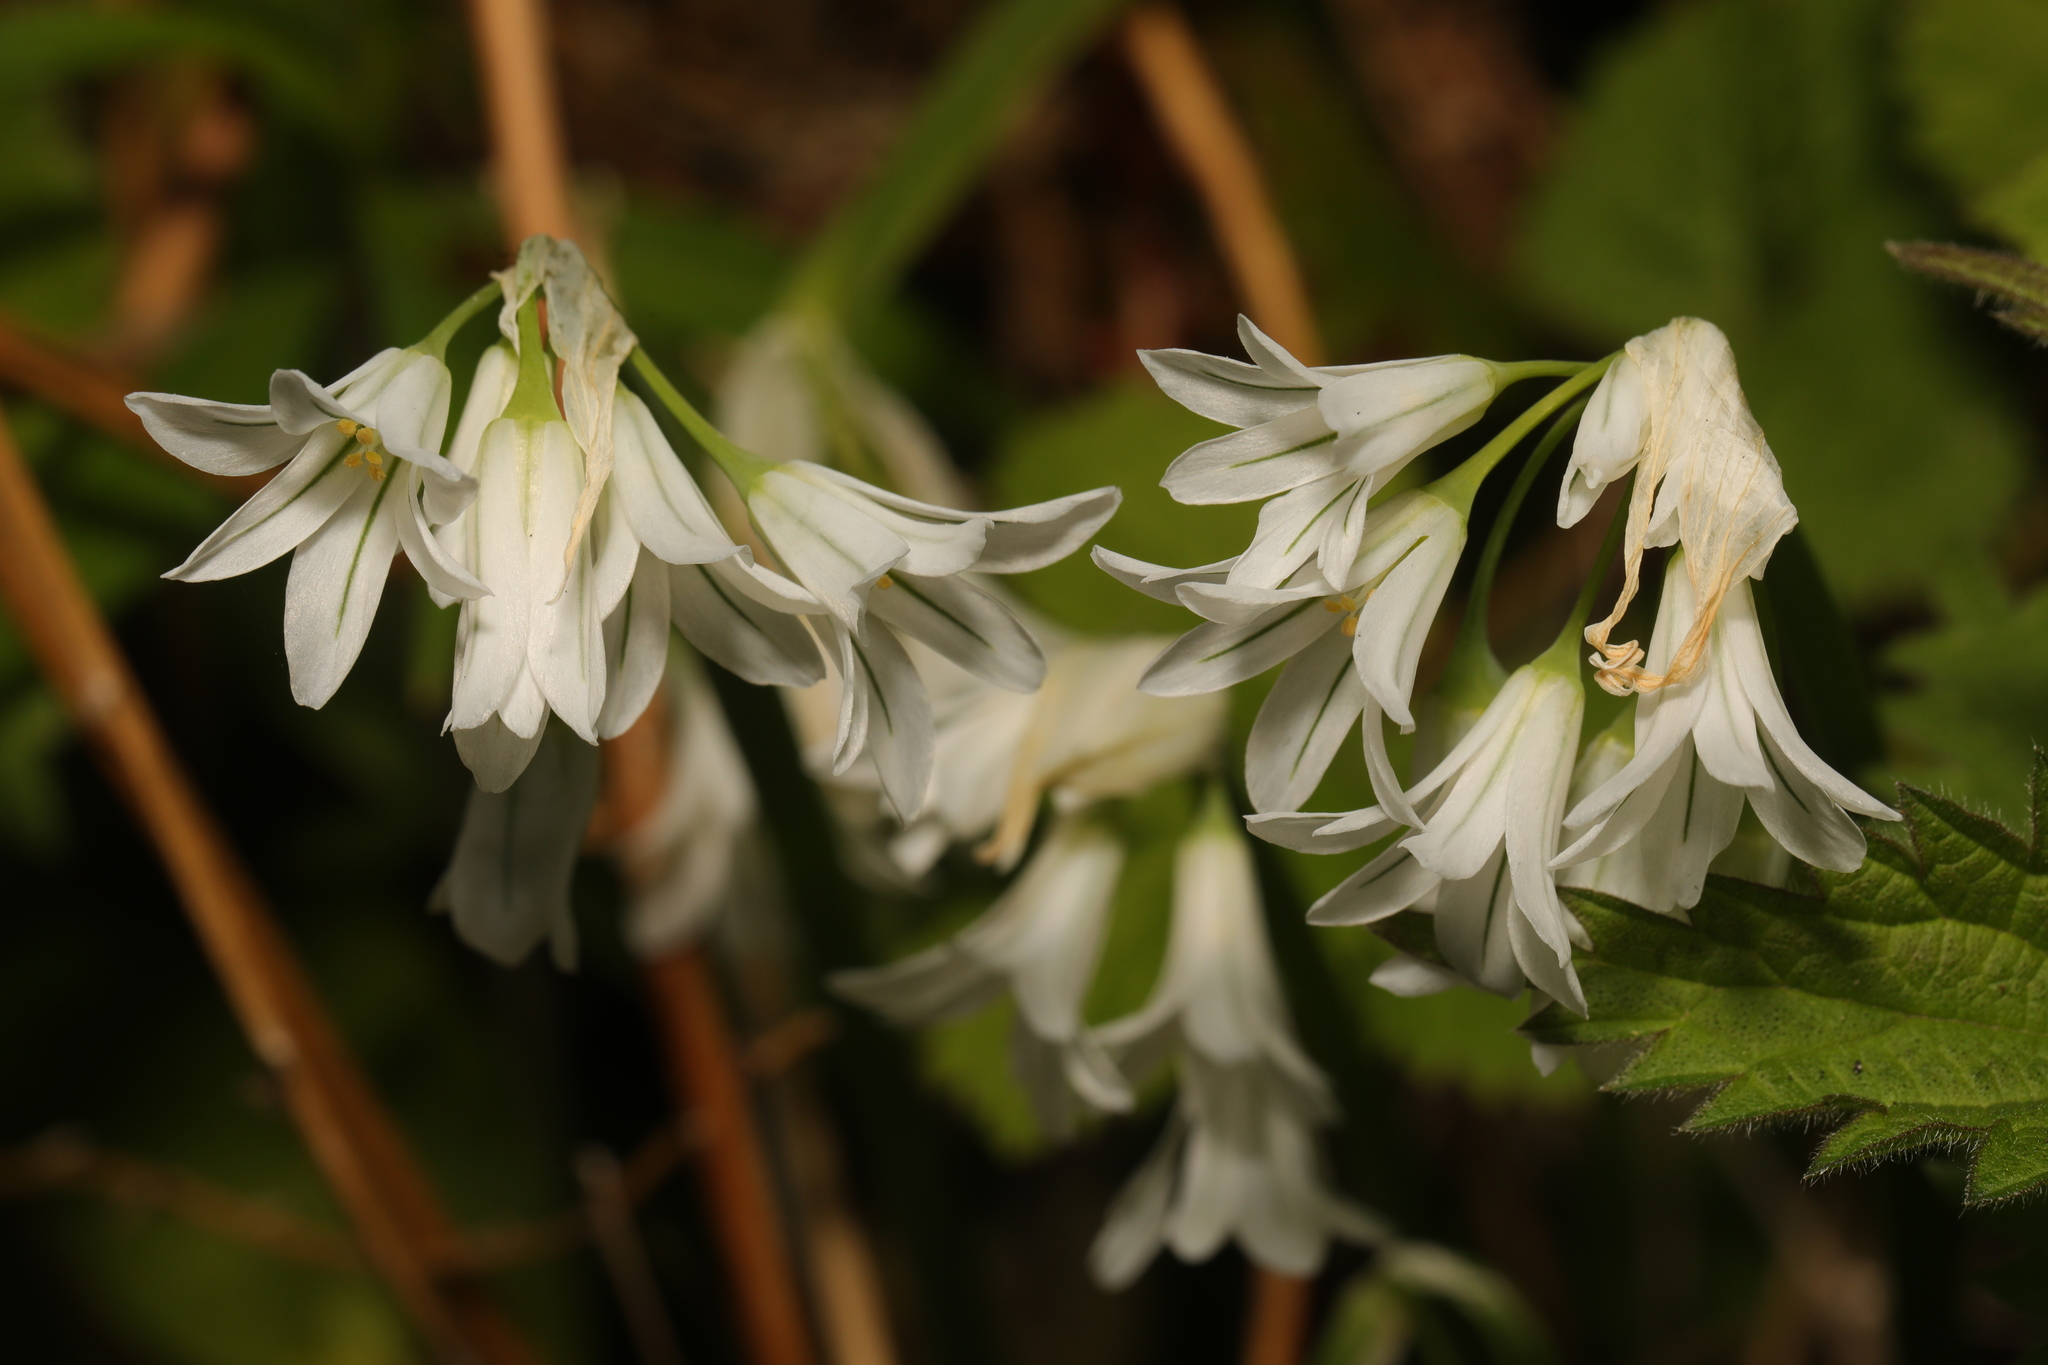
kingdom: Plantae
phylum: Tracheophyta
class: Liliopsida
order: Asparagales
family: Amaryllidaceae
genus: Allium
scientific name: Allium triquetrum
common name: Three-cornered garlic
